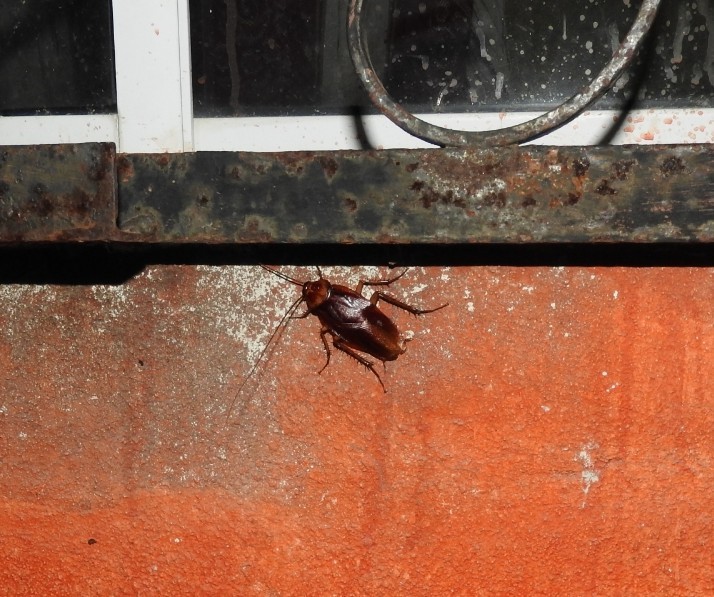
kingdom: Animalia
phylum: Arthropoda
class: Insecta
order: Blattodea
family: Blattidae
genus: Periplaneta
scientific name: Periplaneta americana
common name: American cockroach
